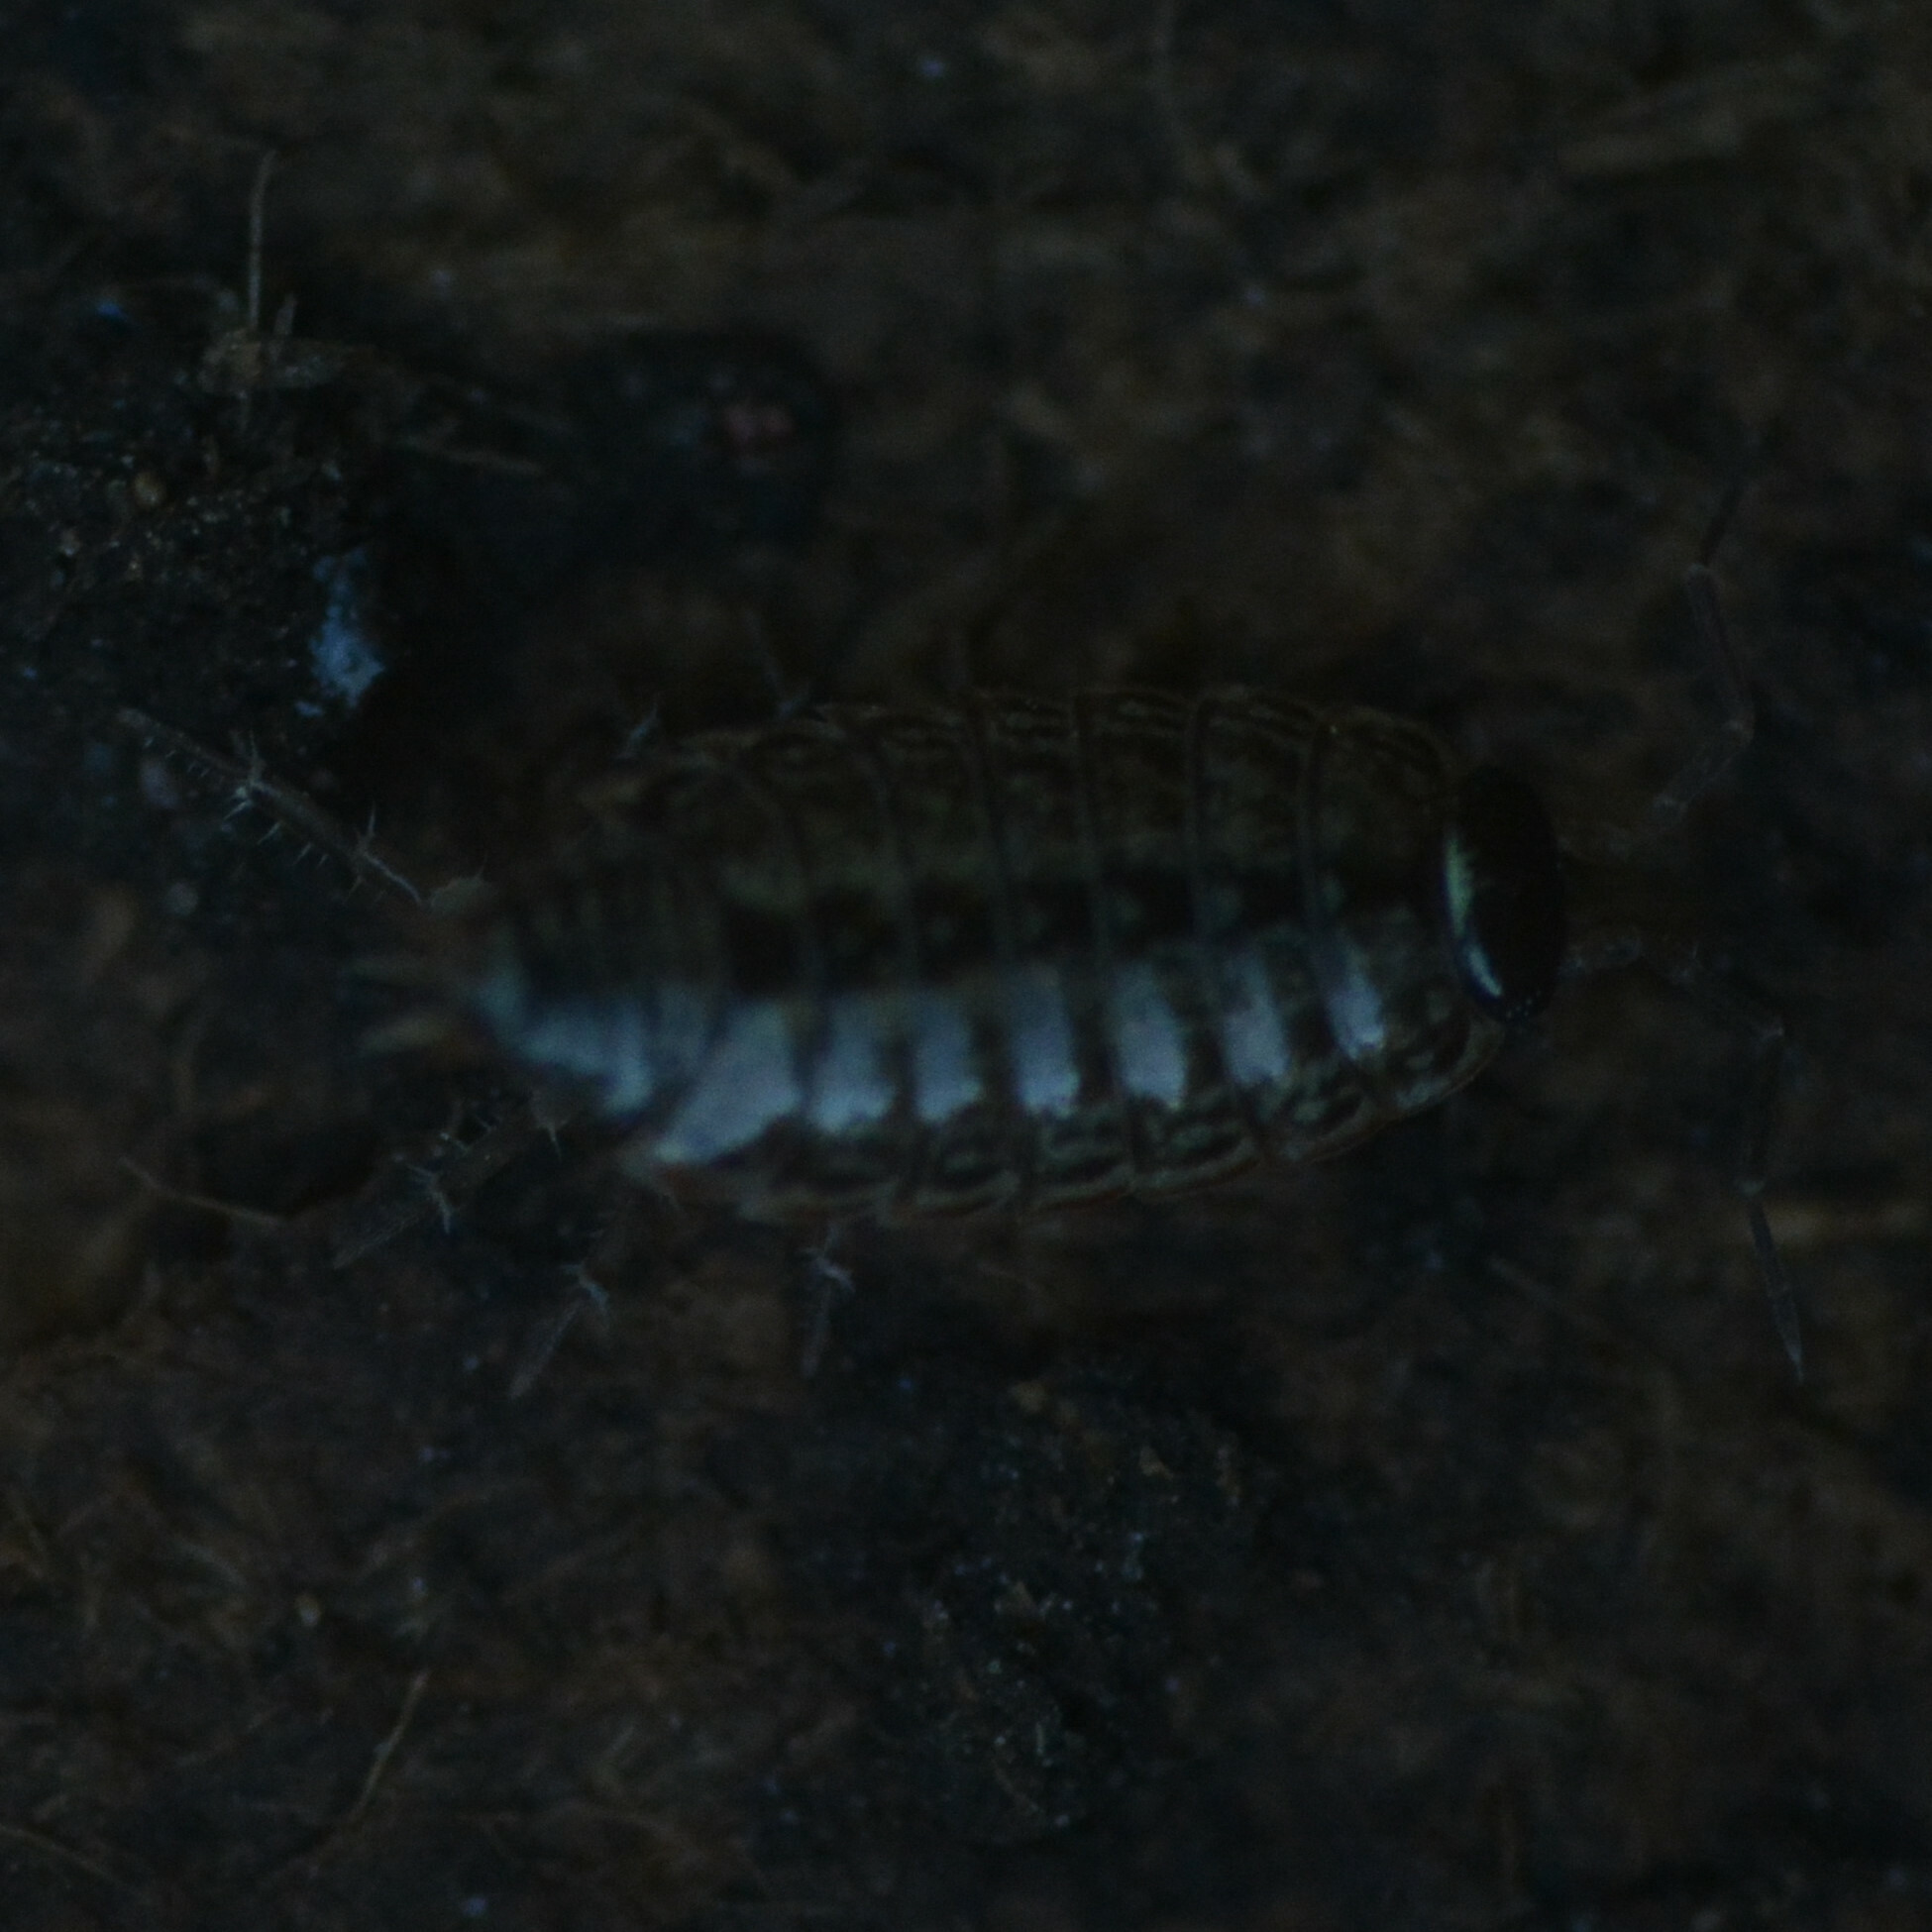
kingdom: Animalia
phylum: Arthropoda
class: Malacostraca
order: Isopoda
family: Philosciidae
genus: Philoscia
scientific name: Philoscia muscorum
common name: Common striped woodlouse
